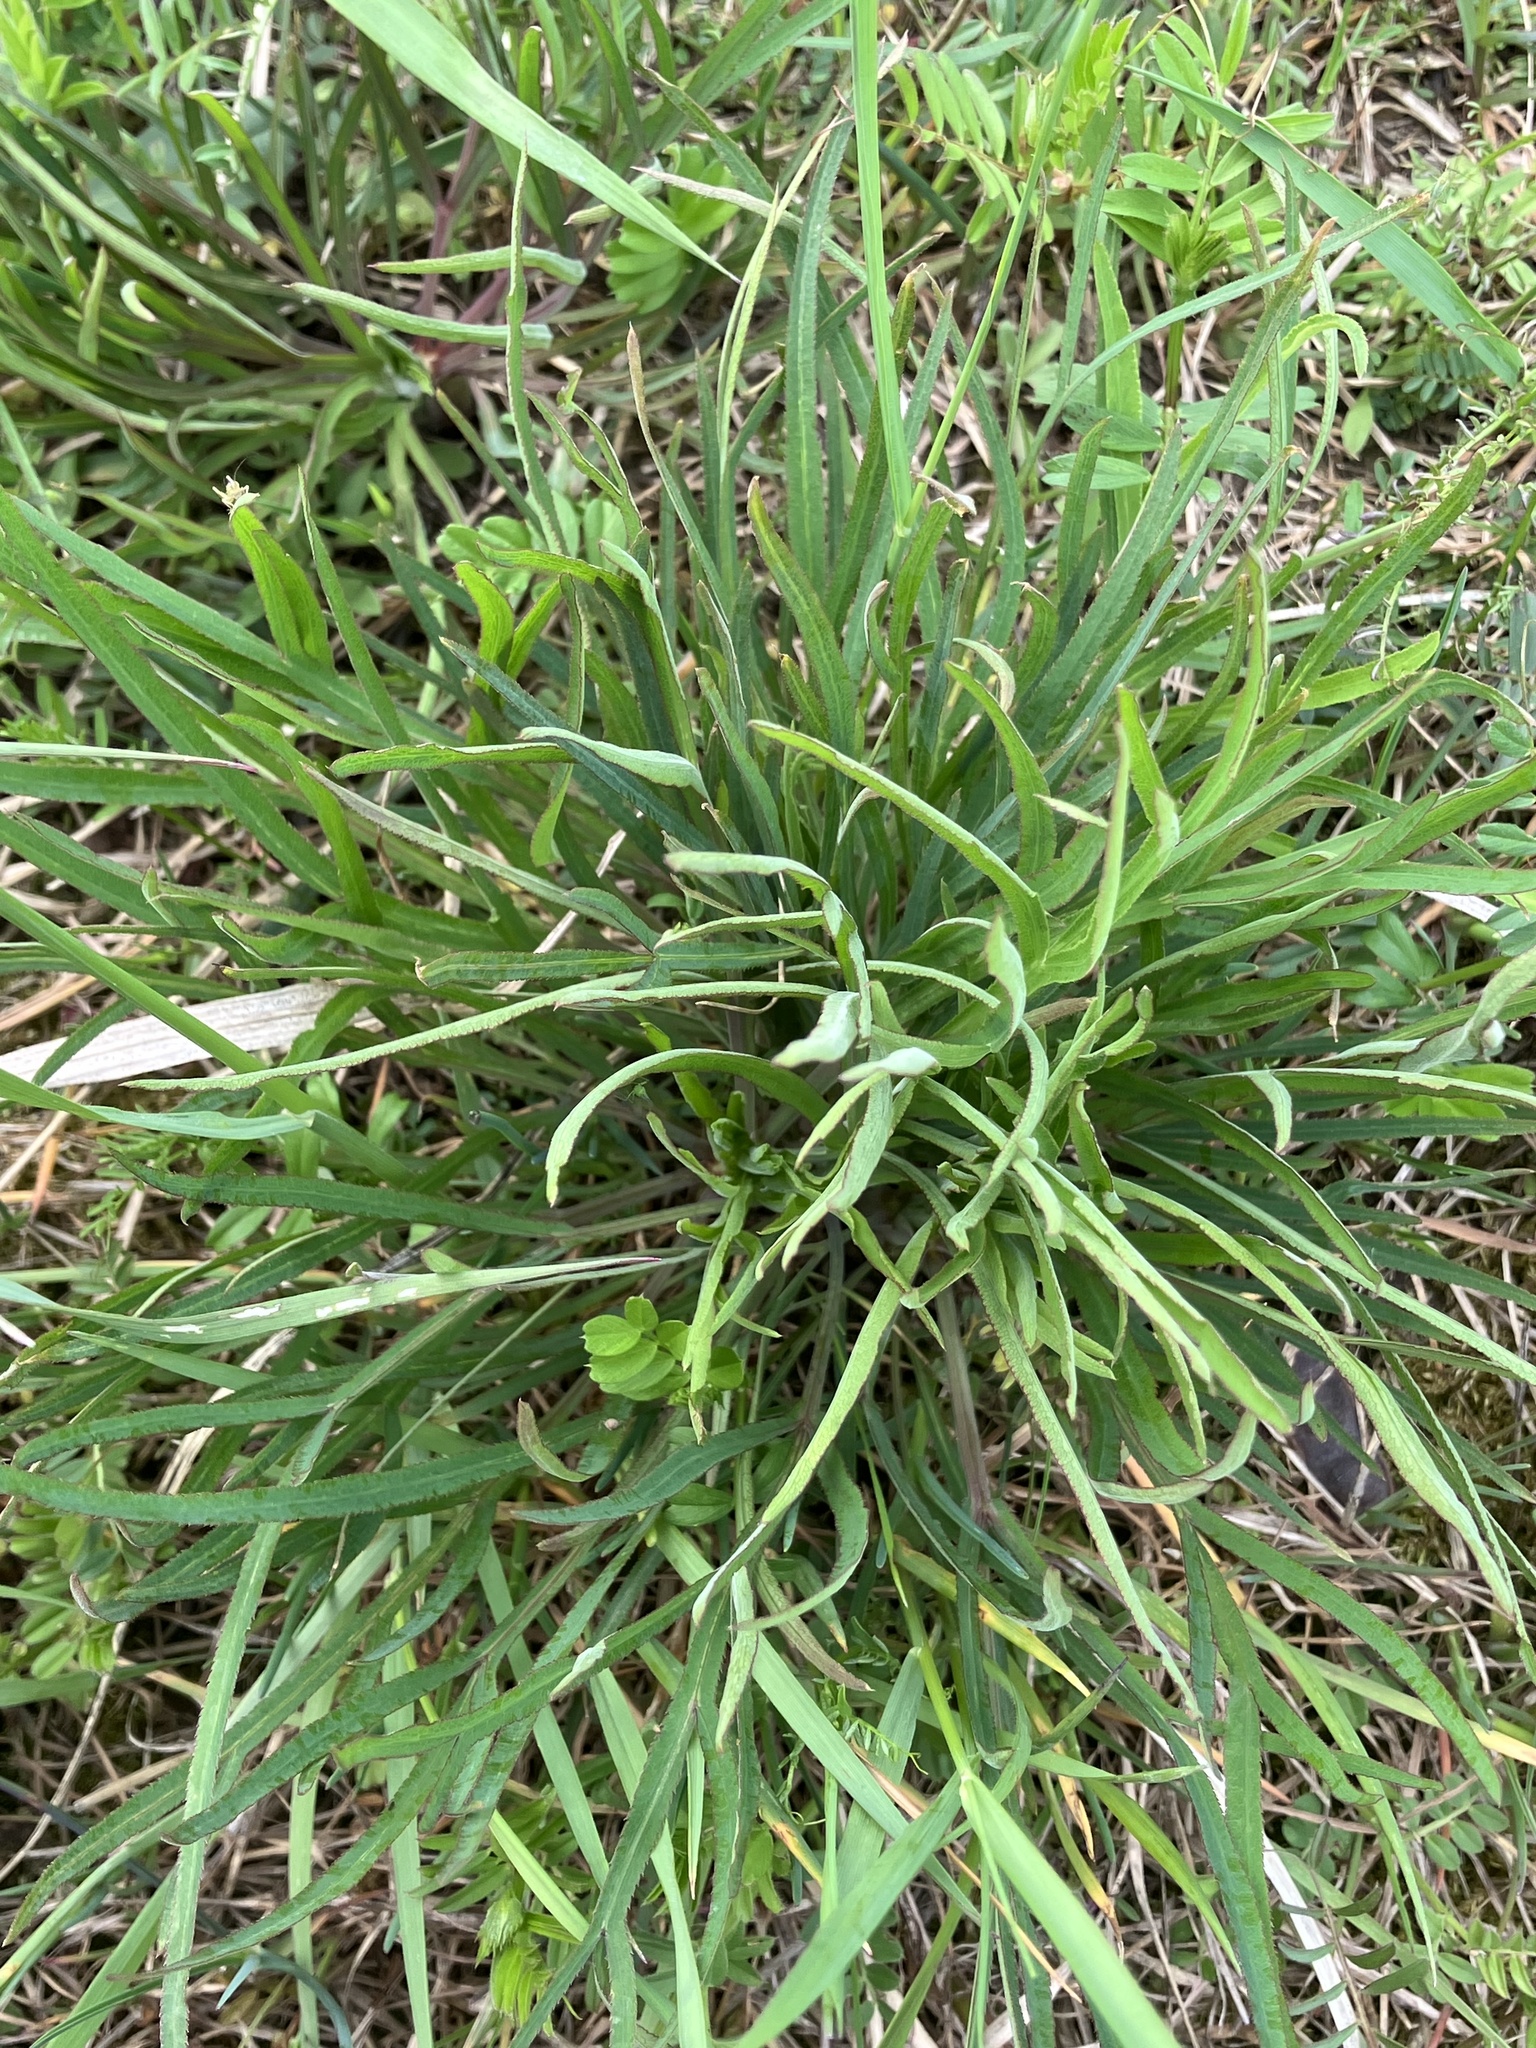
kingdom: Plantae
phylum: Tracheophyta
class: Magnoliopsida
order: Apiales
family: Apiaceae
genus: Falcaria
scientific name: Falcaria vulgaris
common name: Longleaf
